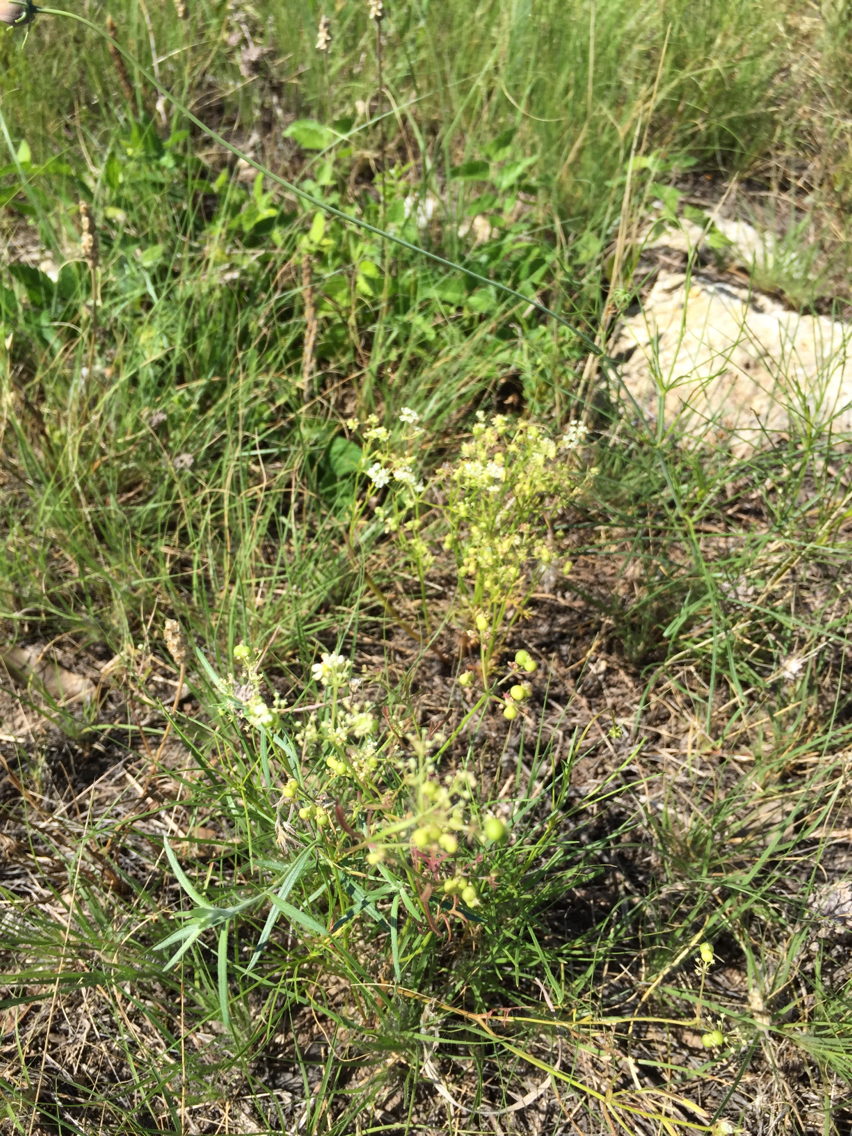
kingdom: Plantae
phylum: Tracheophyta
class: Magnoliopsida
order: Apiales
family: Apiaceae
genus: Atrema
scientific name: Atrema americanum
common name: Prairie-bishop
